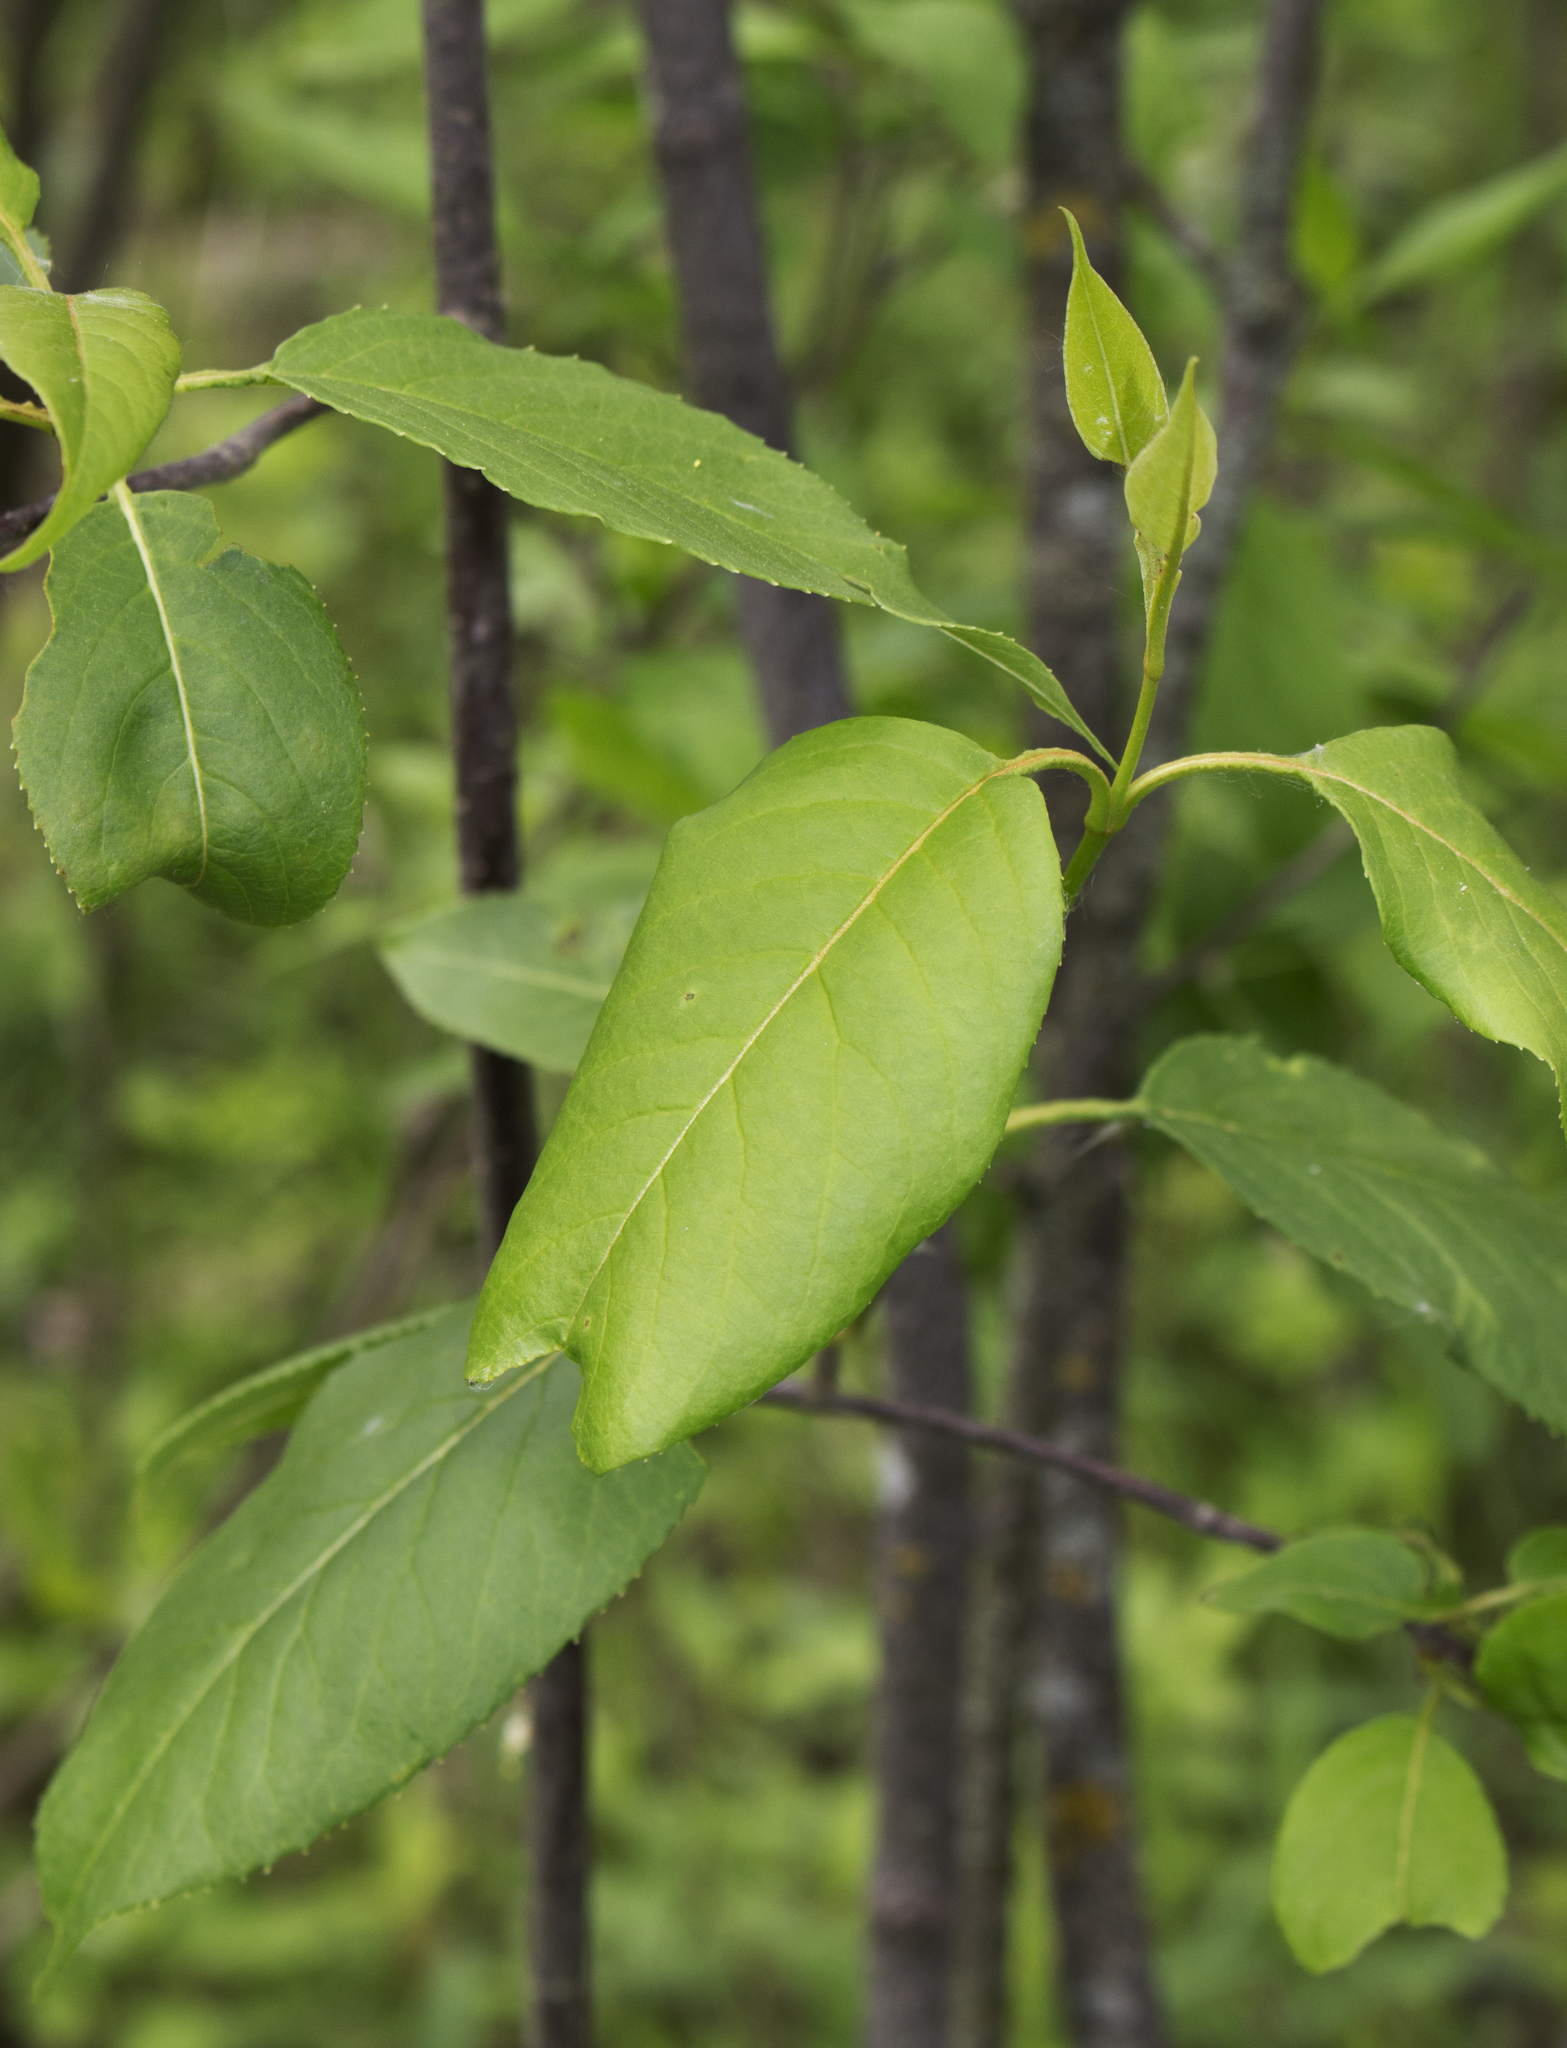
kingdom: Plantae
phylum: Tracheophyta
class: Magnoliopsida
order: Dipsacales
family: Viburnaceae
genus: Viburnum
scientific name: Viburnum lentago
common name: Black haw
